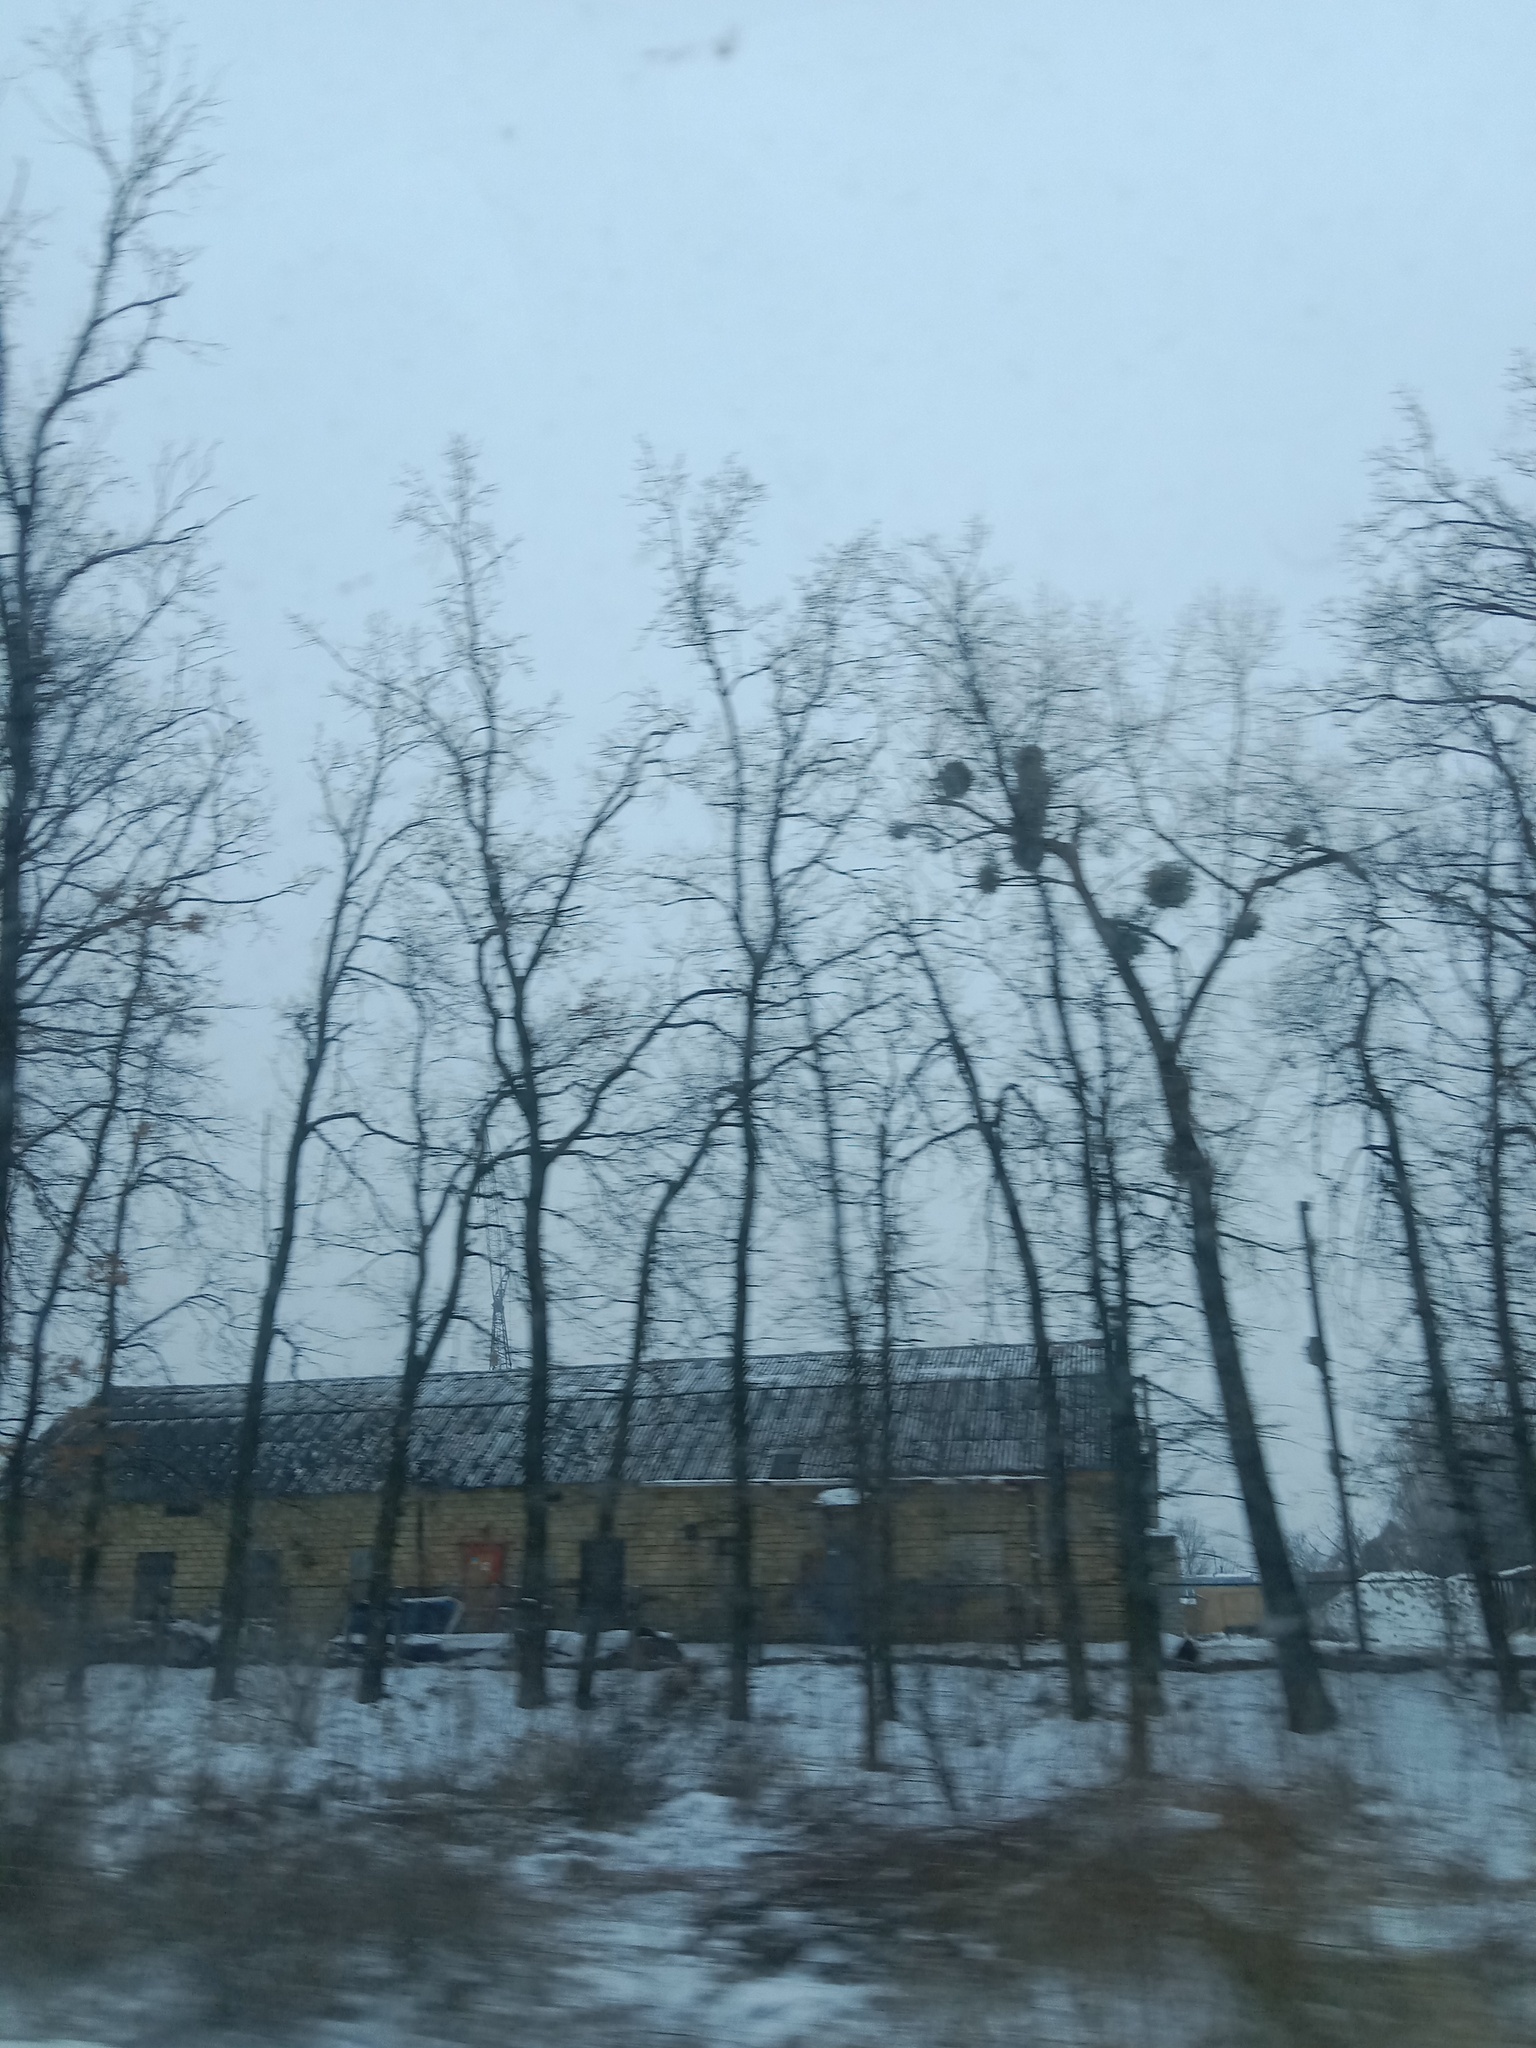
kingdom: Plantae
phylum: Tracheophyta
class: Magnoliopsida
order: Santalales
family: Viscaceae
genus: Viscum
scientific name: Viscum album
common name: Mistletoe
